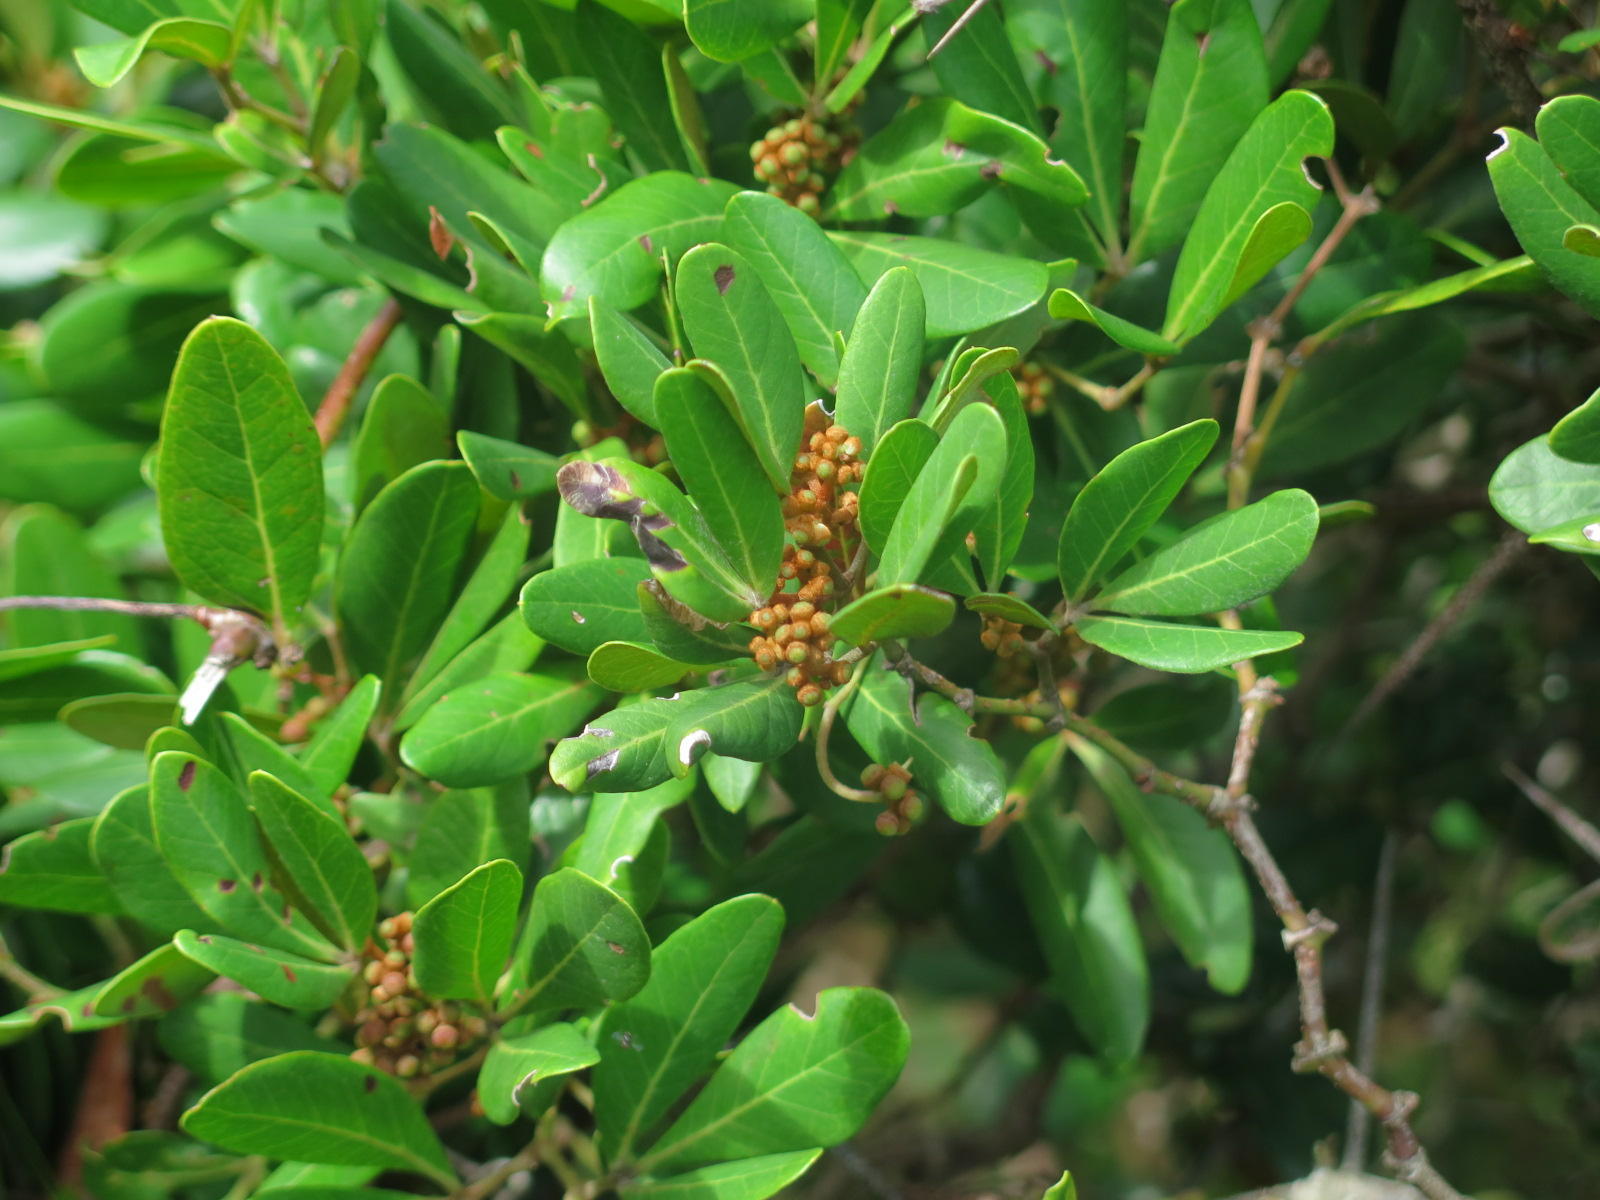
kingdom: Plantae
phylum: Tracheophyta
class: Magnoliopsida
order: Vitales
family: Vitaceae
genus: Rhoicissus
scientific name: Rhoicissus digitata
